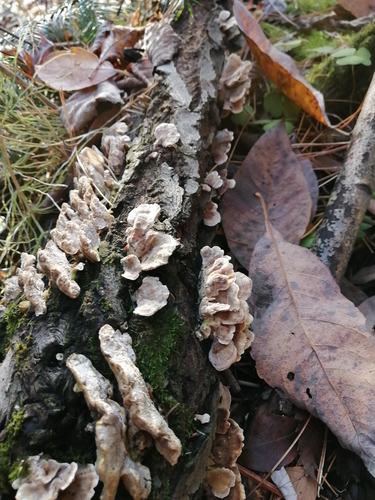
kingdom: Fungi
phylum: Basidiomycota
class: Agaricomycetes
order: Polyporales
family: Polyporaceae
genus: Trametes
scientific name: Trametes ochracea
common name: Ochre bracket
